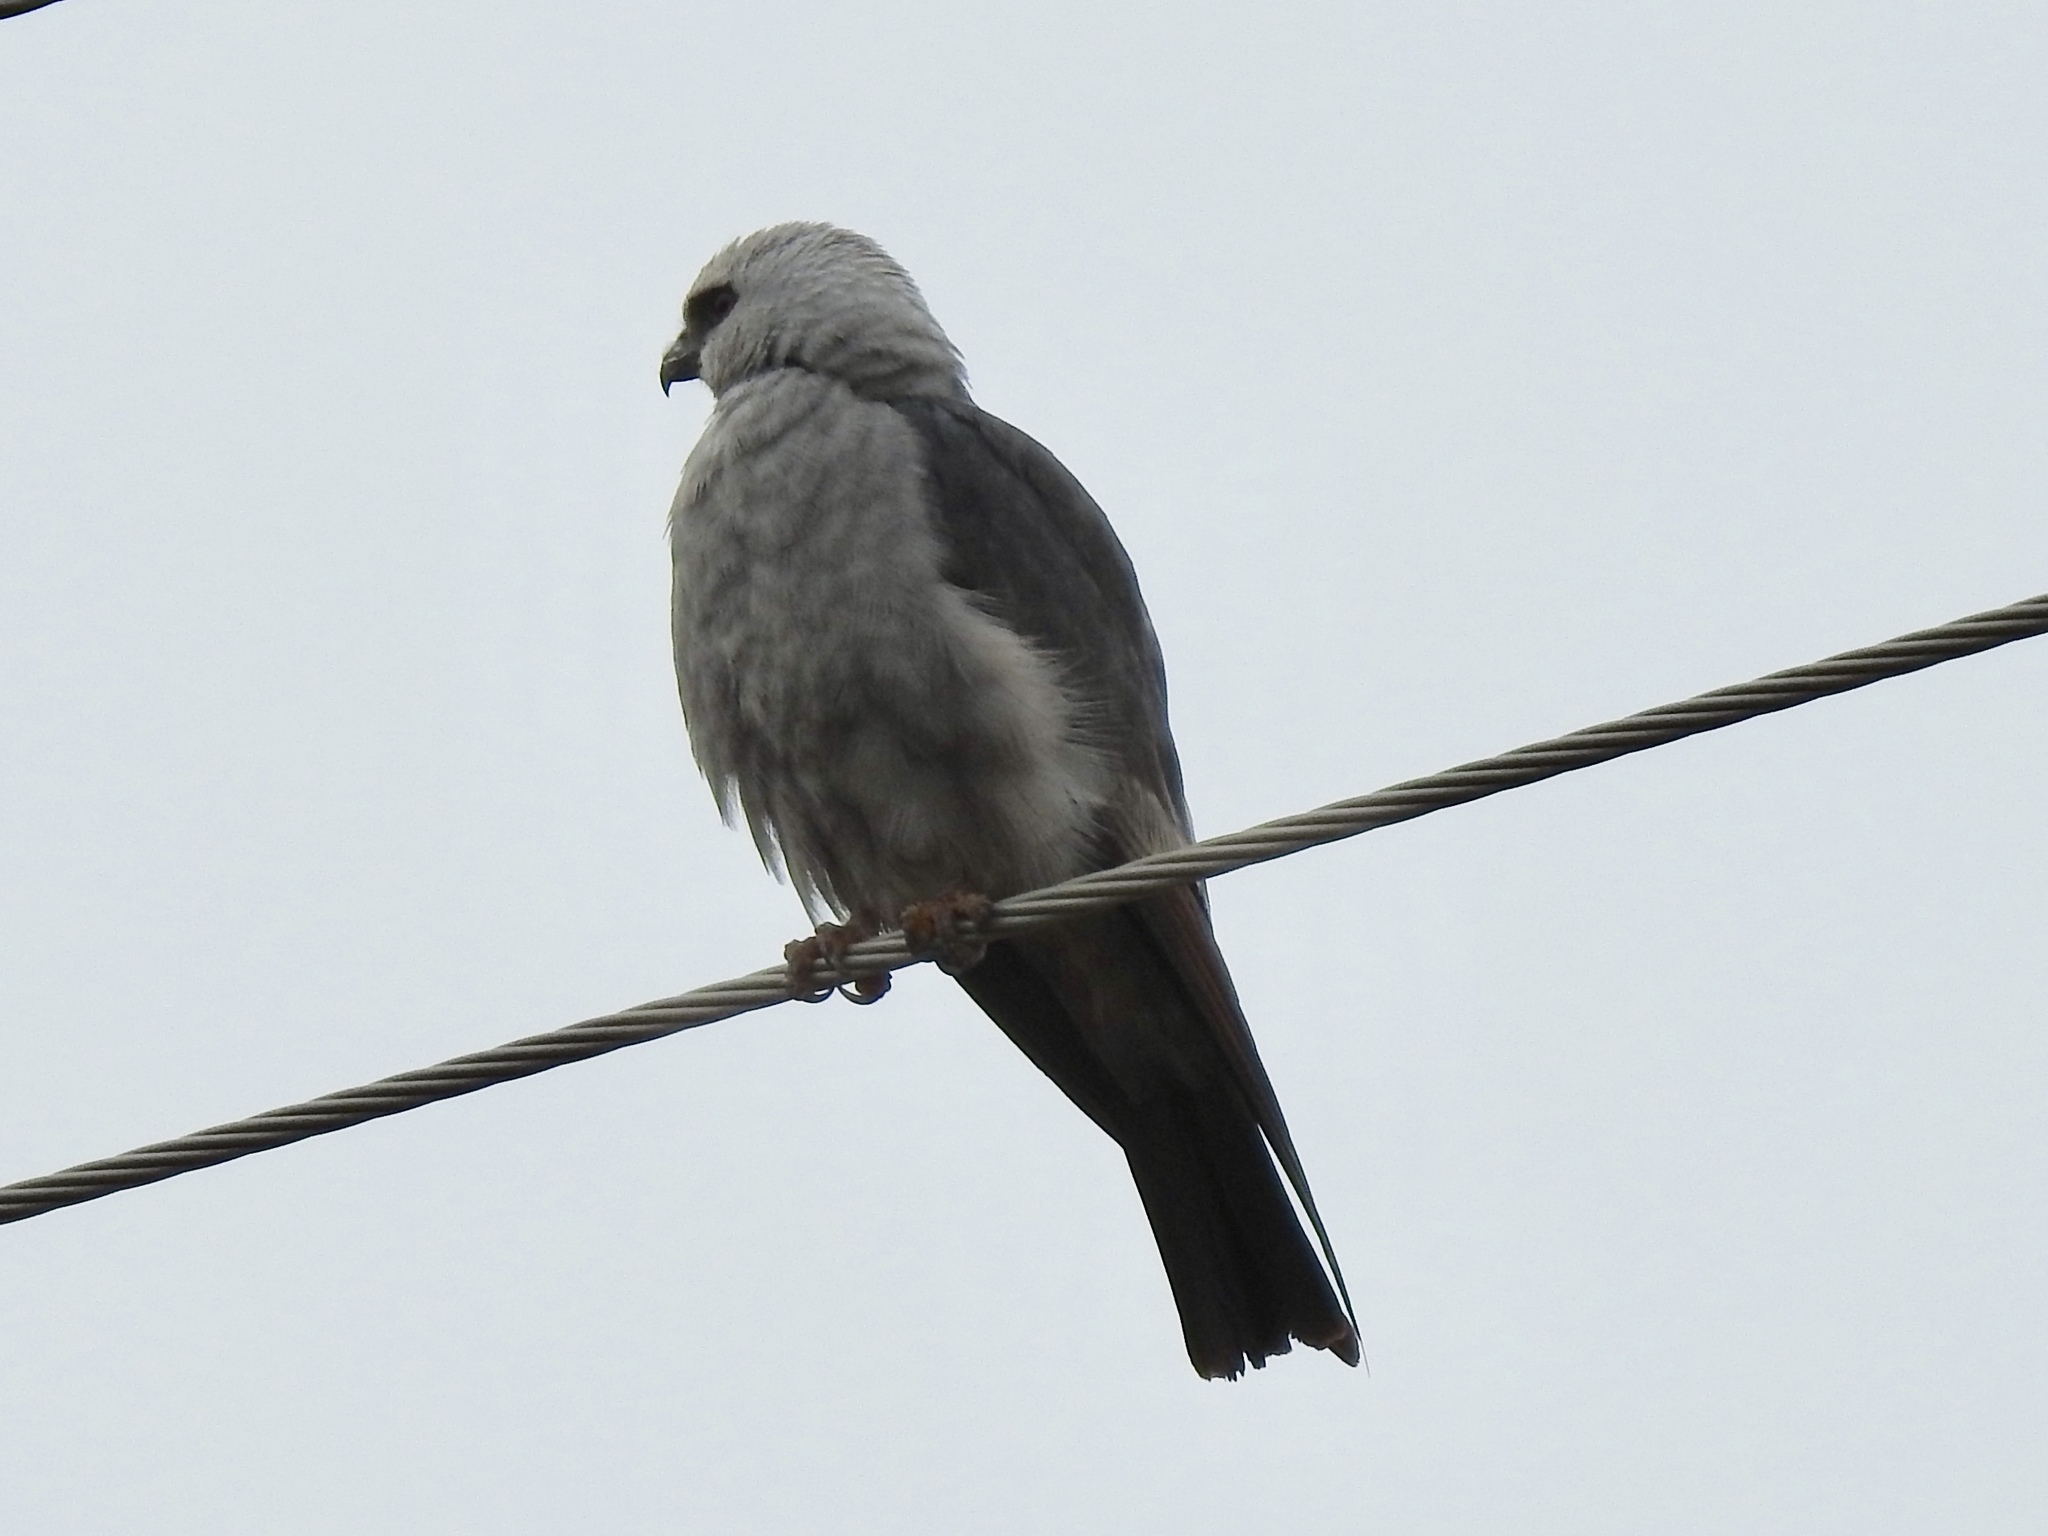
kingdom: Animalia
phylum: Chordata
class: Aves
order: Accipitriformes
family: Accipitridae
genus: Ictinia
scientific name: Ictinia mississippiensis
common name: Mississippi kite
